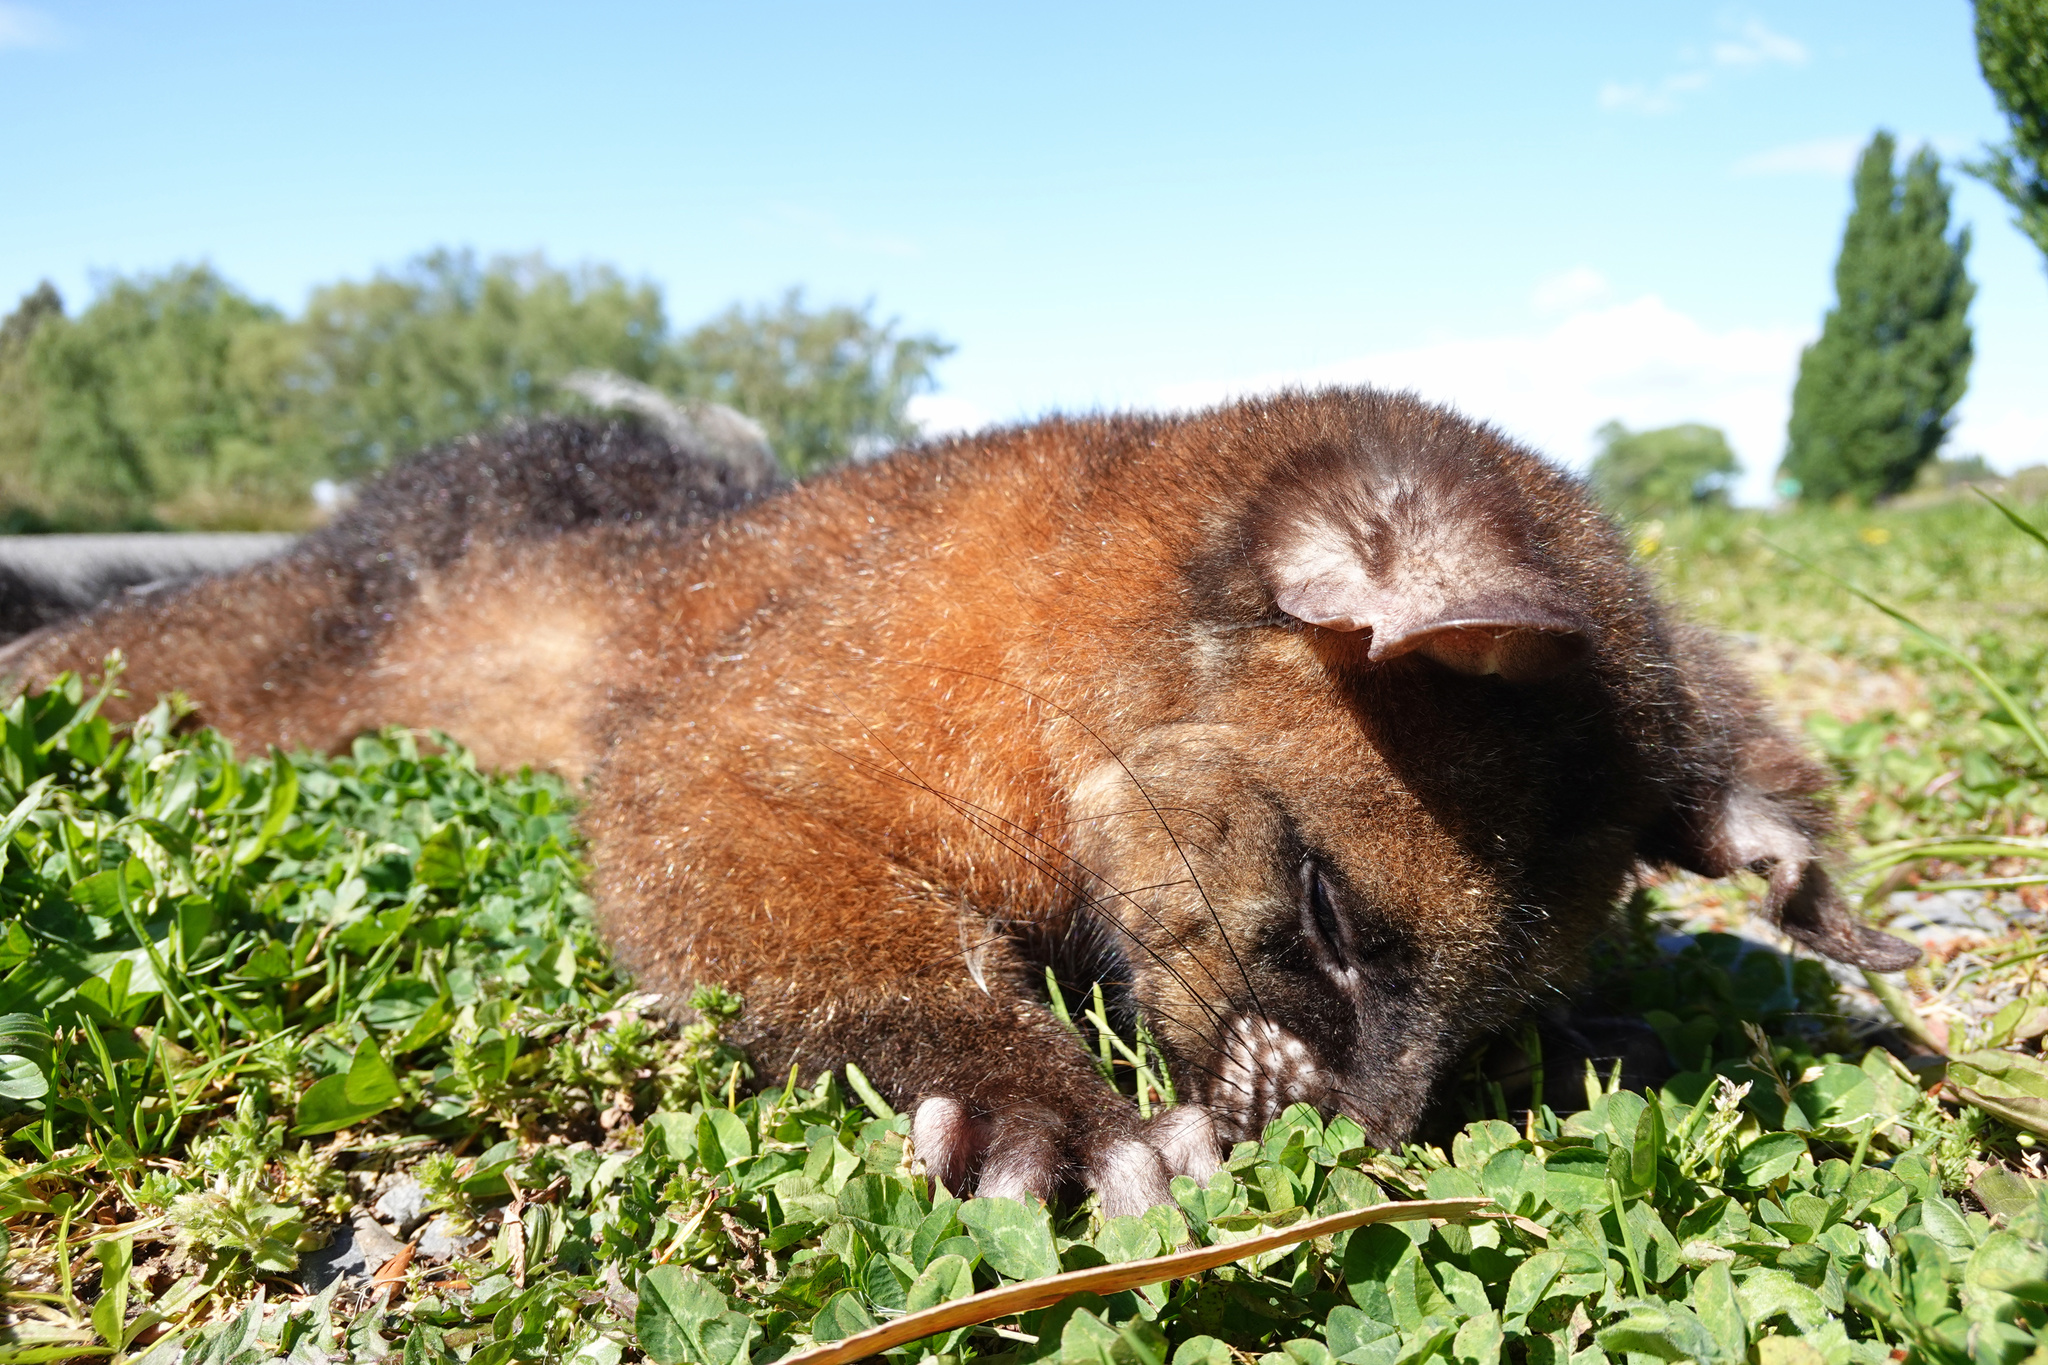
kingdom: Animalia
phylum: Chordata
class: Mammalia
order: Diprotodontia
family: Phalangeridae
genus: Trichosurus
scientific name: Trichosurus vulpecula
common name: Common brushtail
